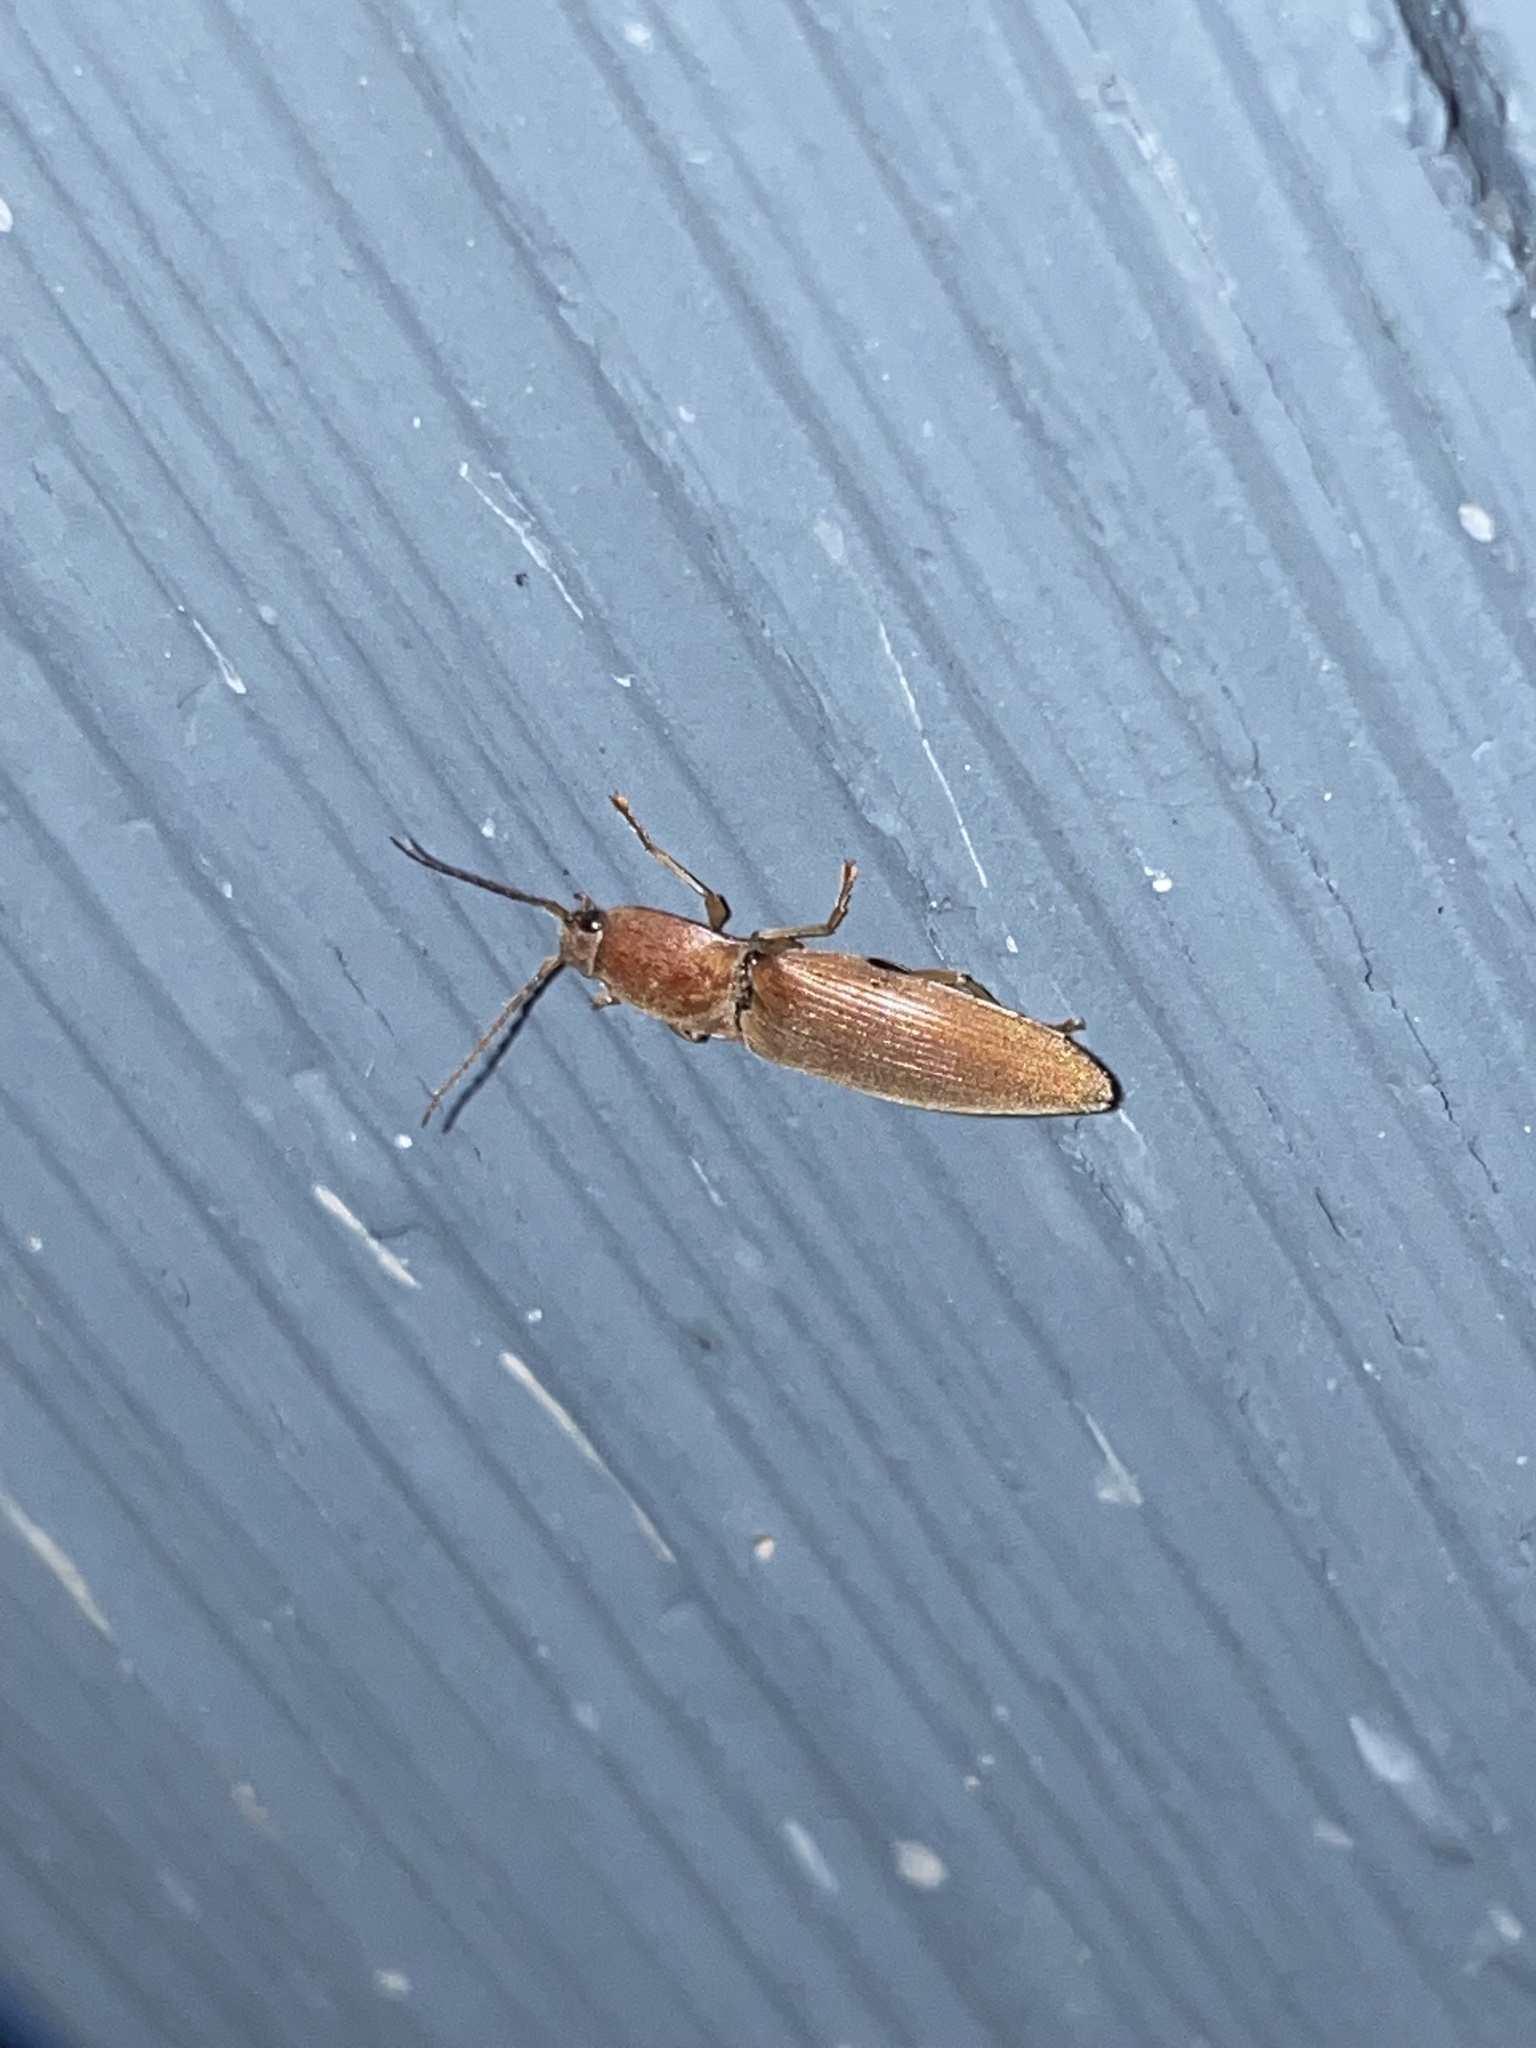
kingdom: Animalia
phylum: Arthropoda
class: Insecta
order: Coleoptera
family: Elateridae
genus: Monocrepidius
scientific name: Monocrepidius lividus
